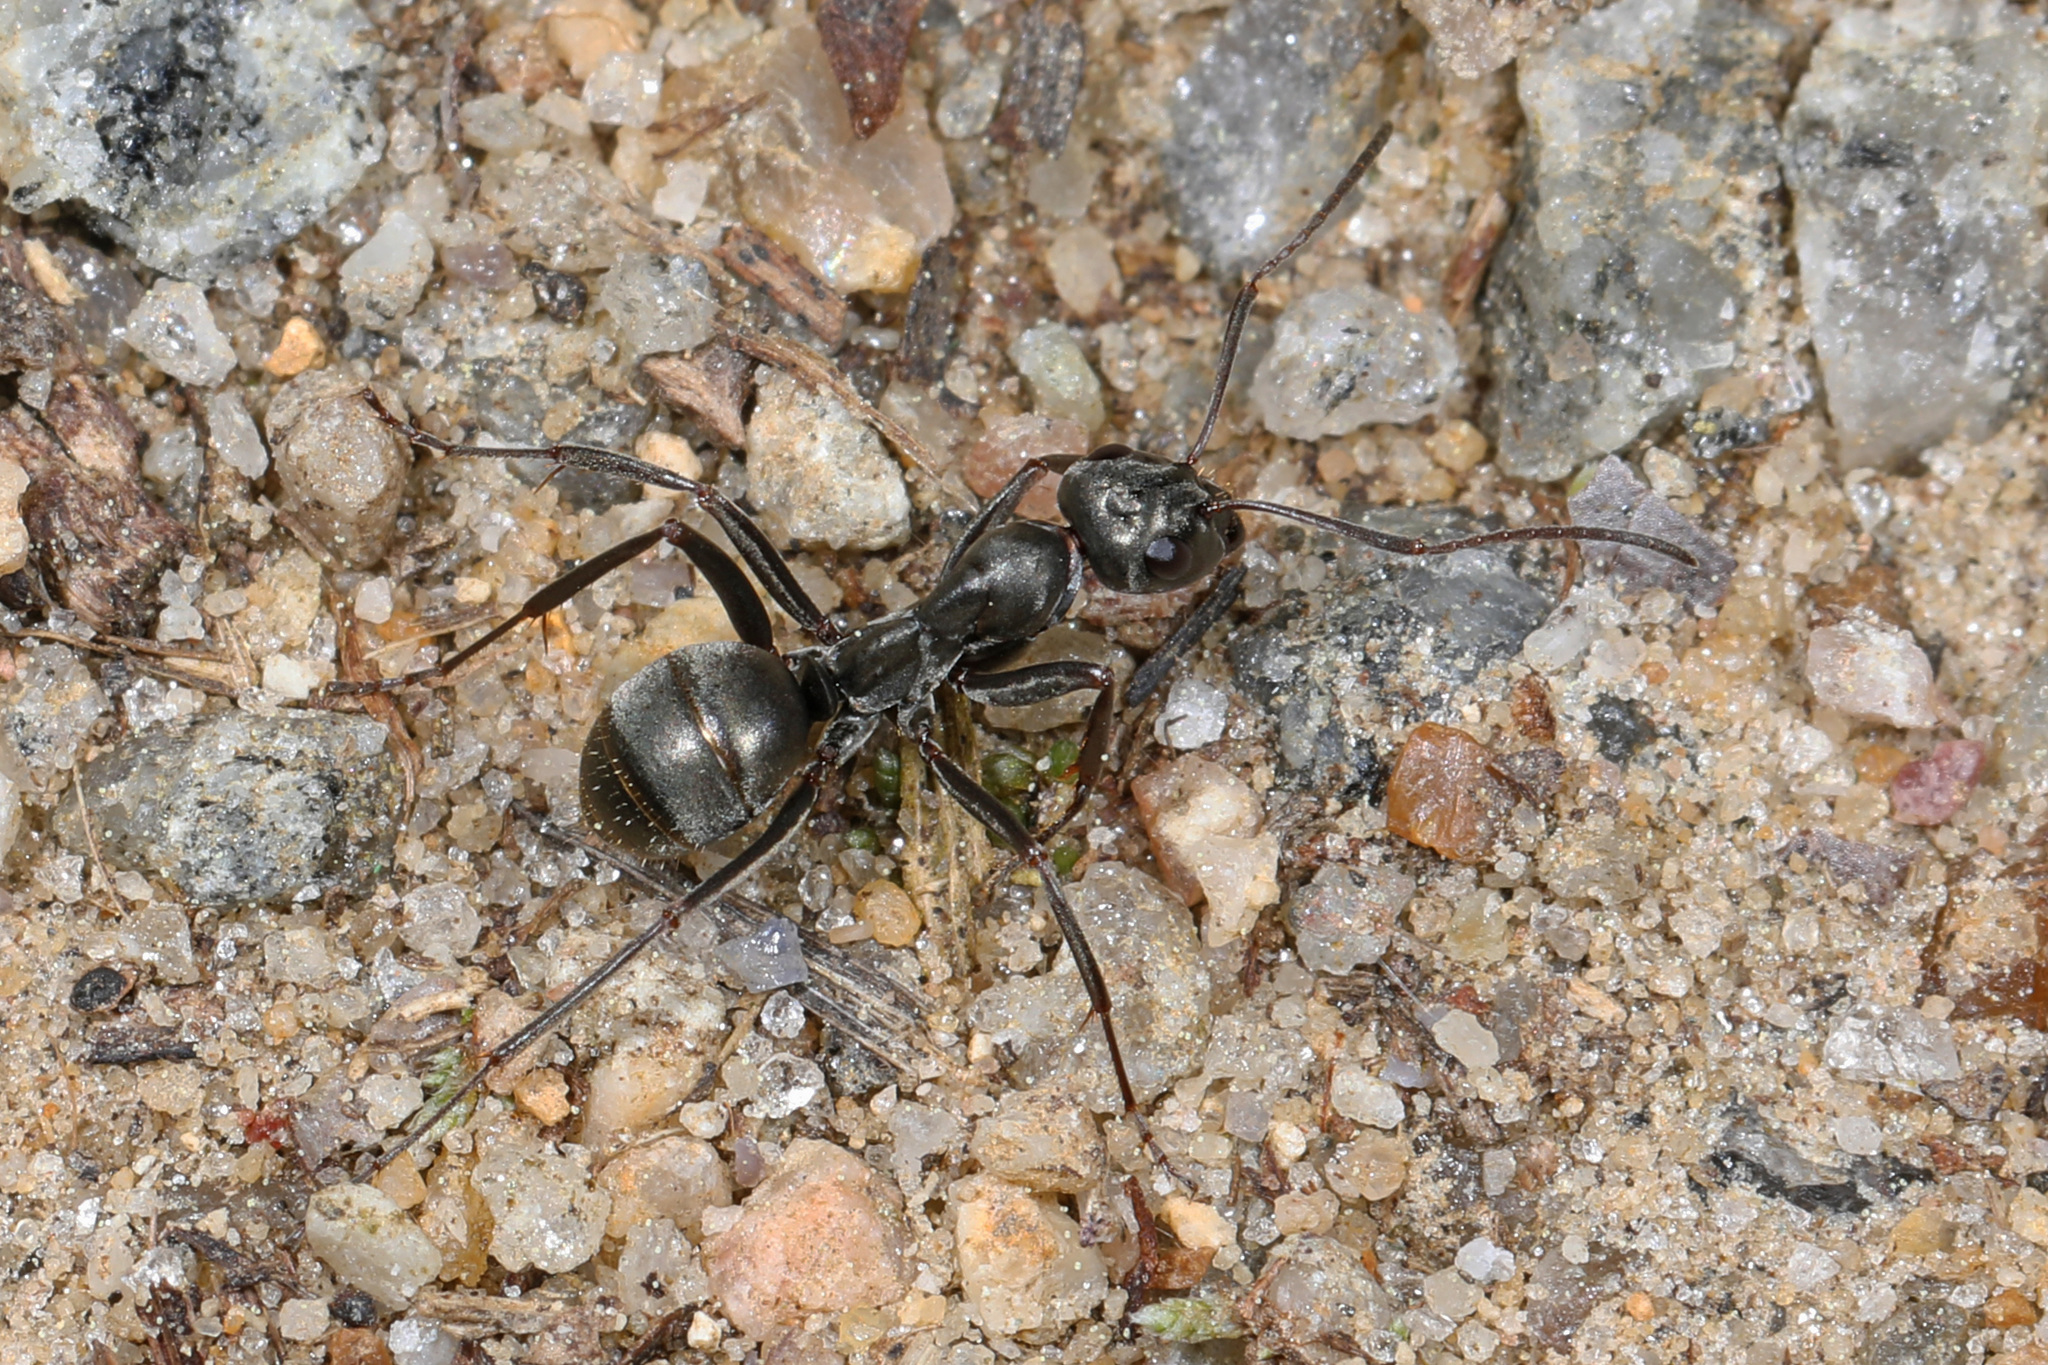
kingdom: Animalia
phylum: Arthropoda
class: Insecta
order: Hymenoptera
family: Formicidae
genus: Formica
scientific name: Formica subsericea
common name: Silky field ant
